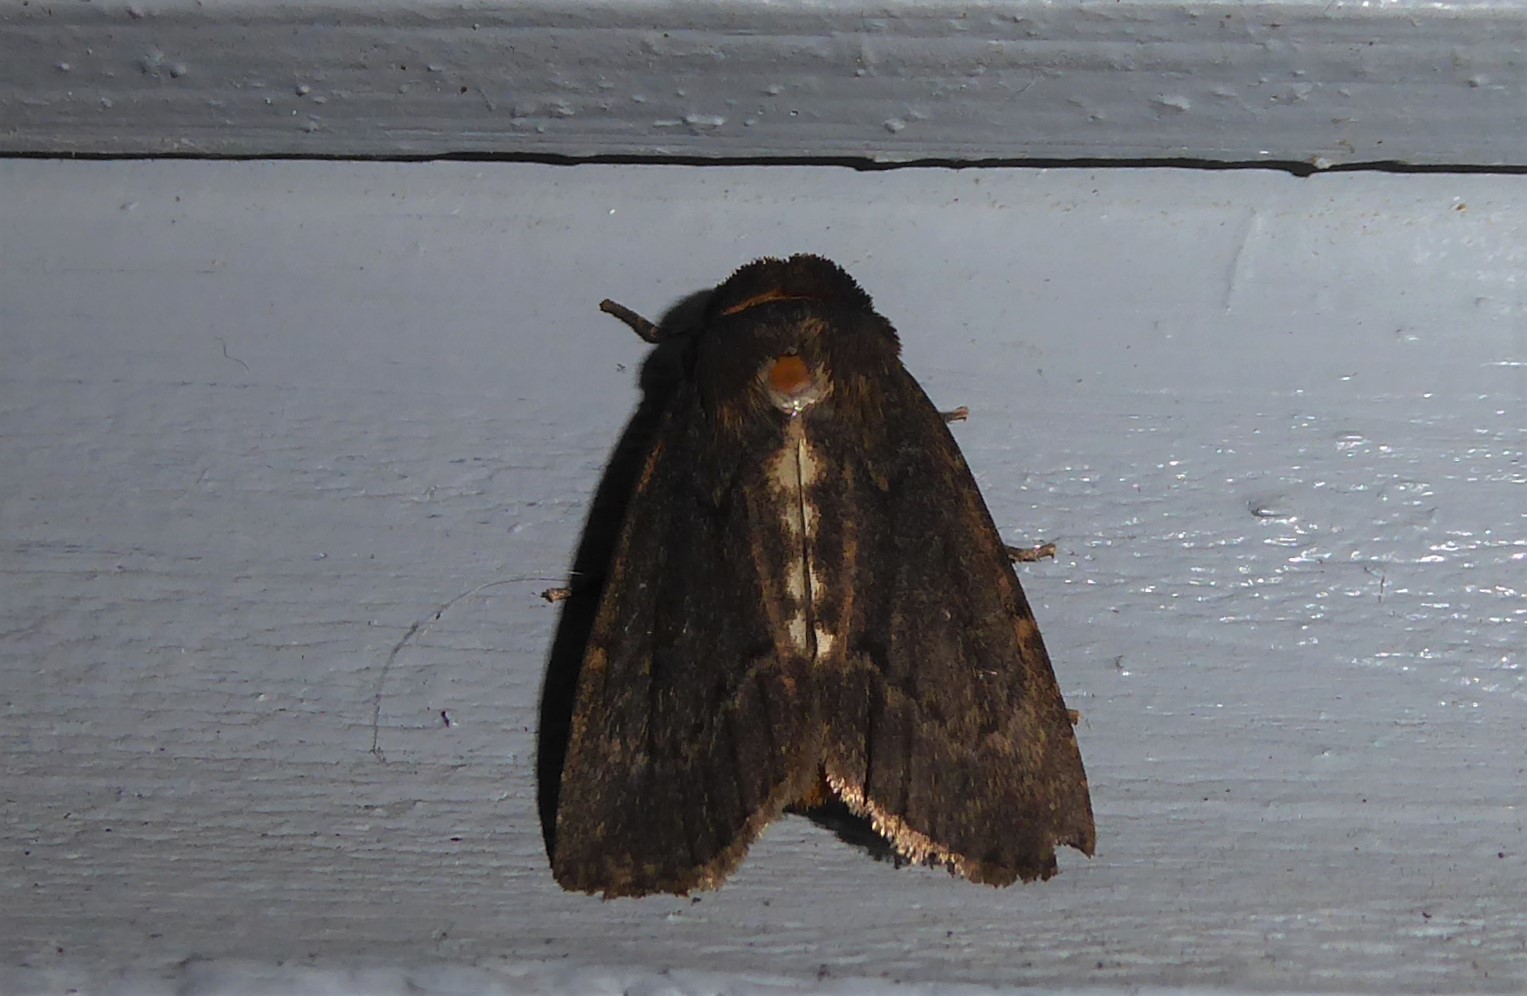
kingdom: Animalia
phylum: Arthropoda
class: Insecta
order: Lepidoptera
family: Noctuidae
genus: Bityla
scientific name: Bityla defigurata
